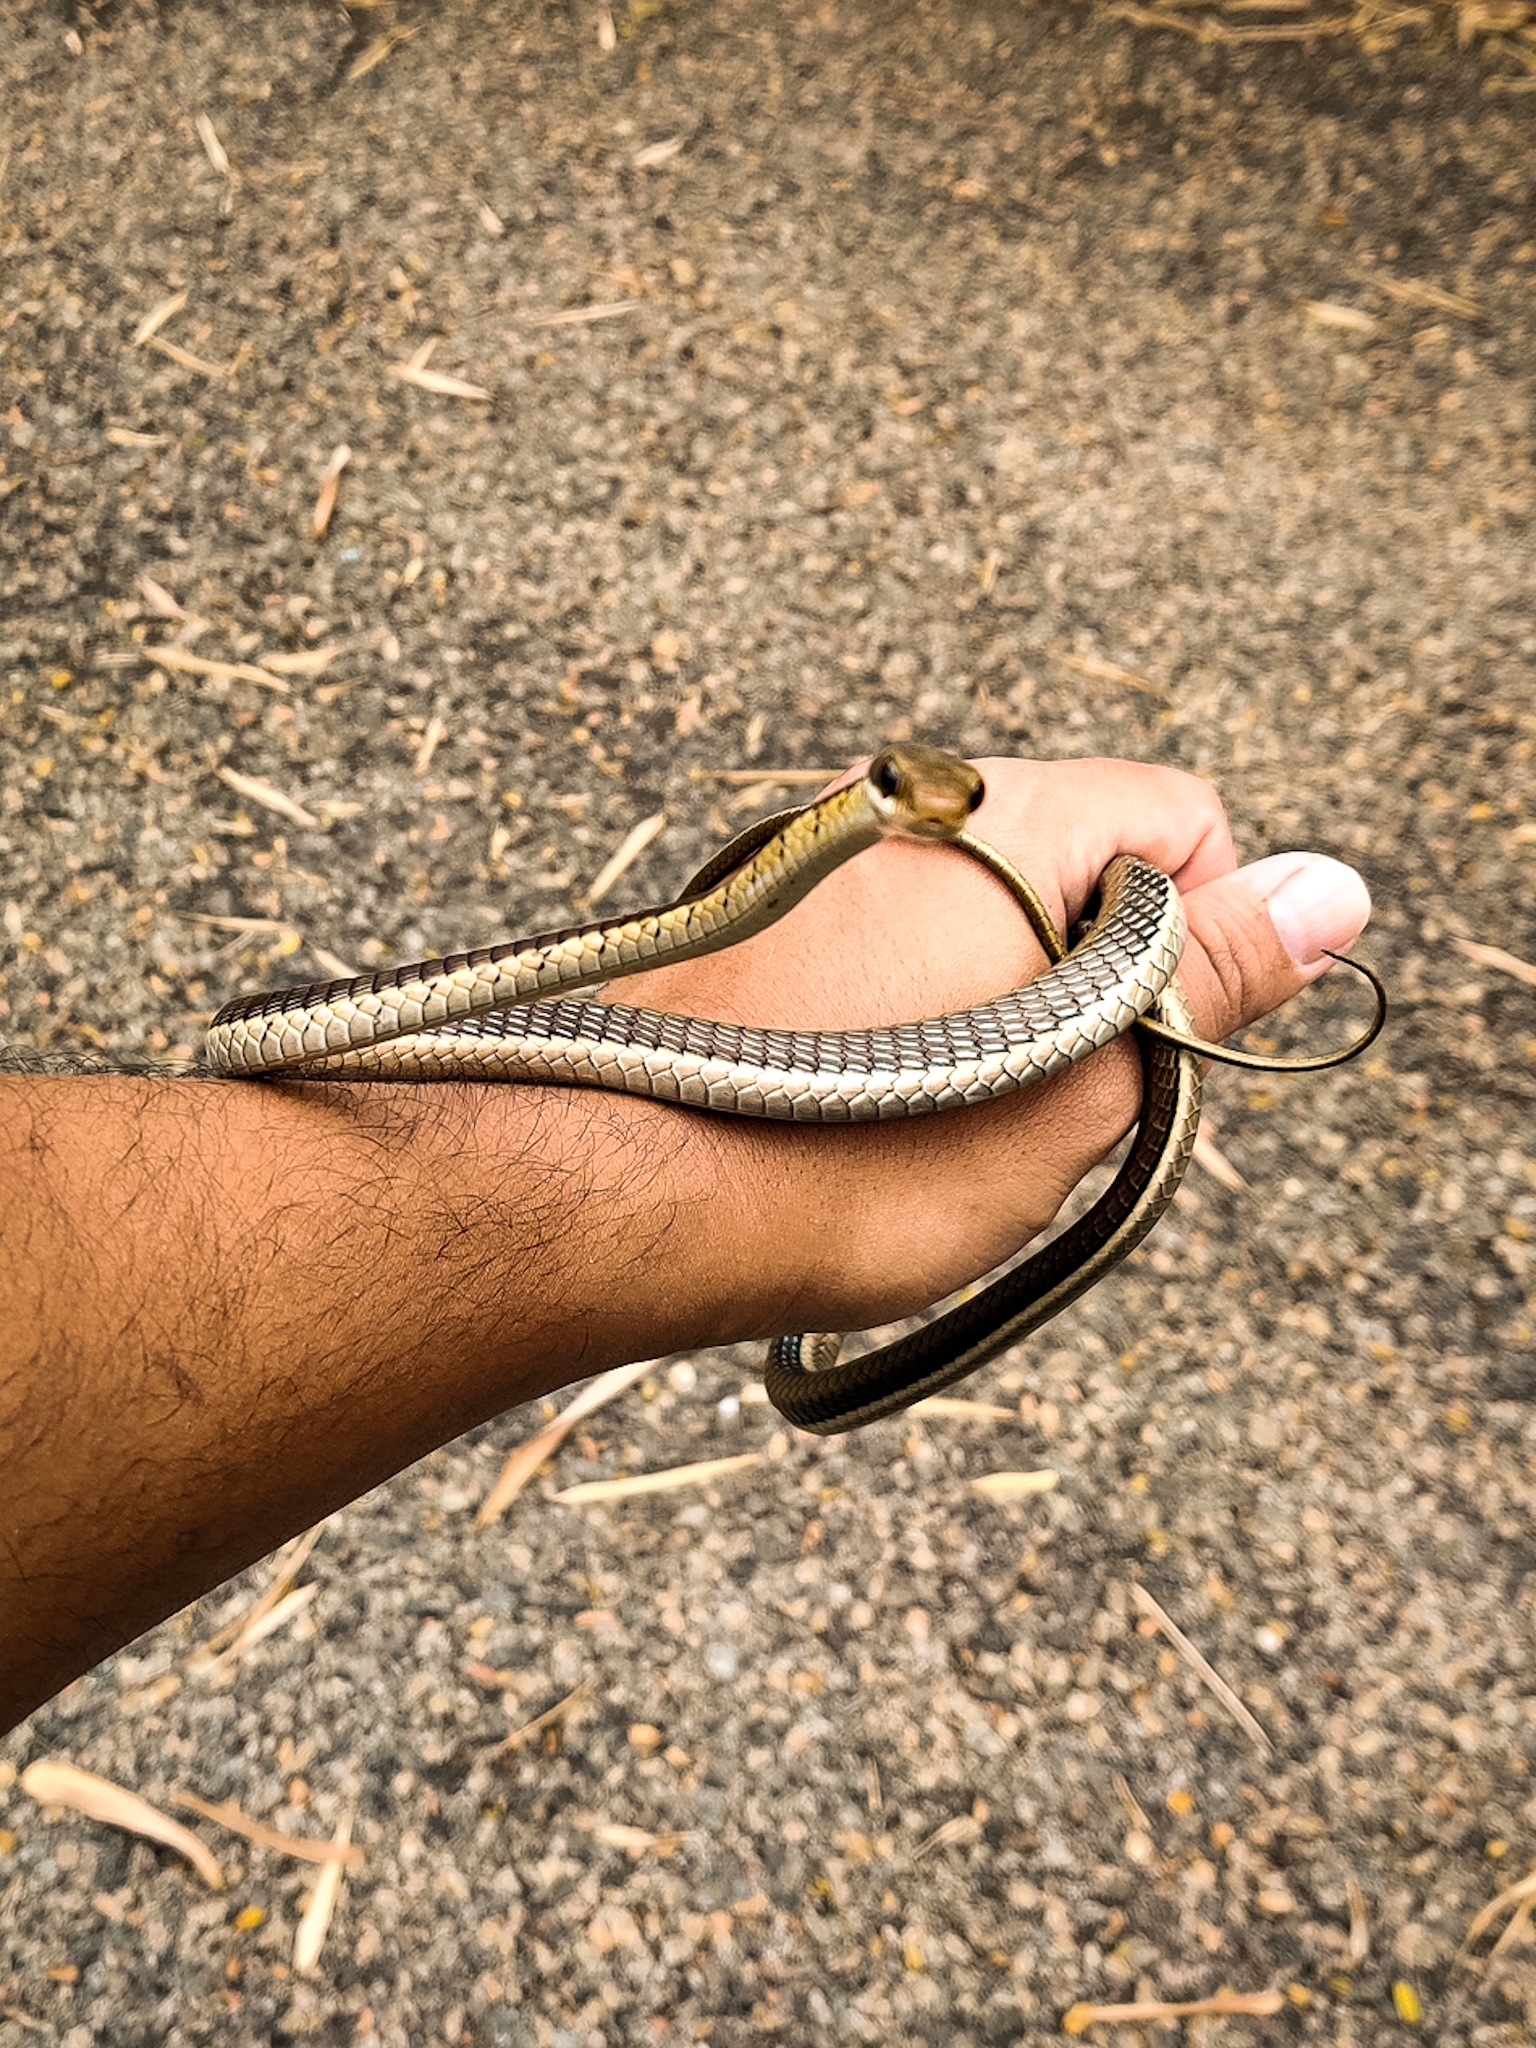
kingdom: Animalia
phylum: Chordata
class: Squamata
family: Colubridae
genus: Dendrelaphis
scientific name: Dendrelaphis tristis
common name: Daudin's bronzeback
